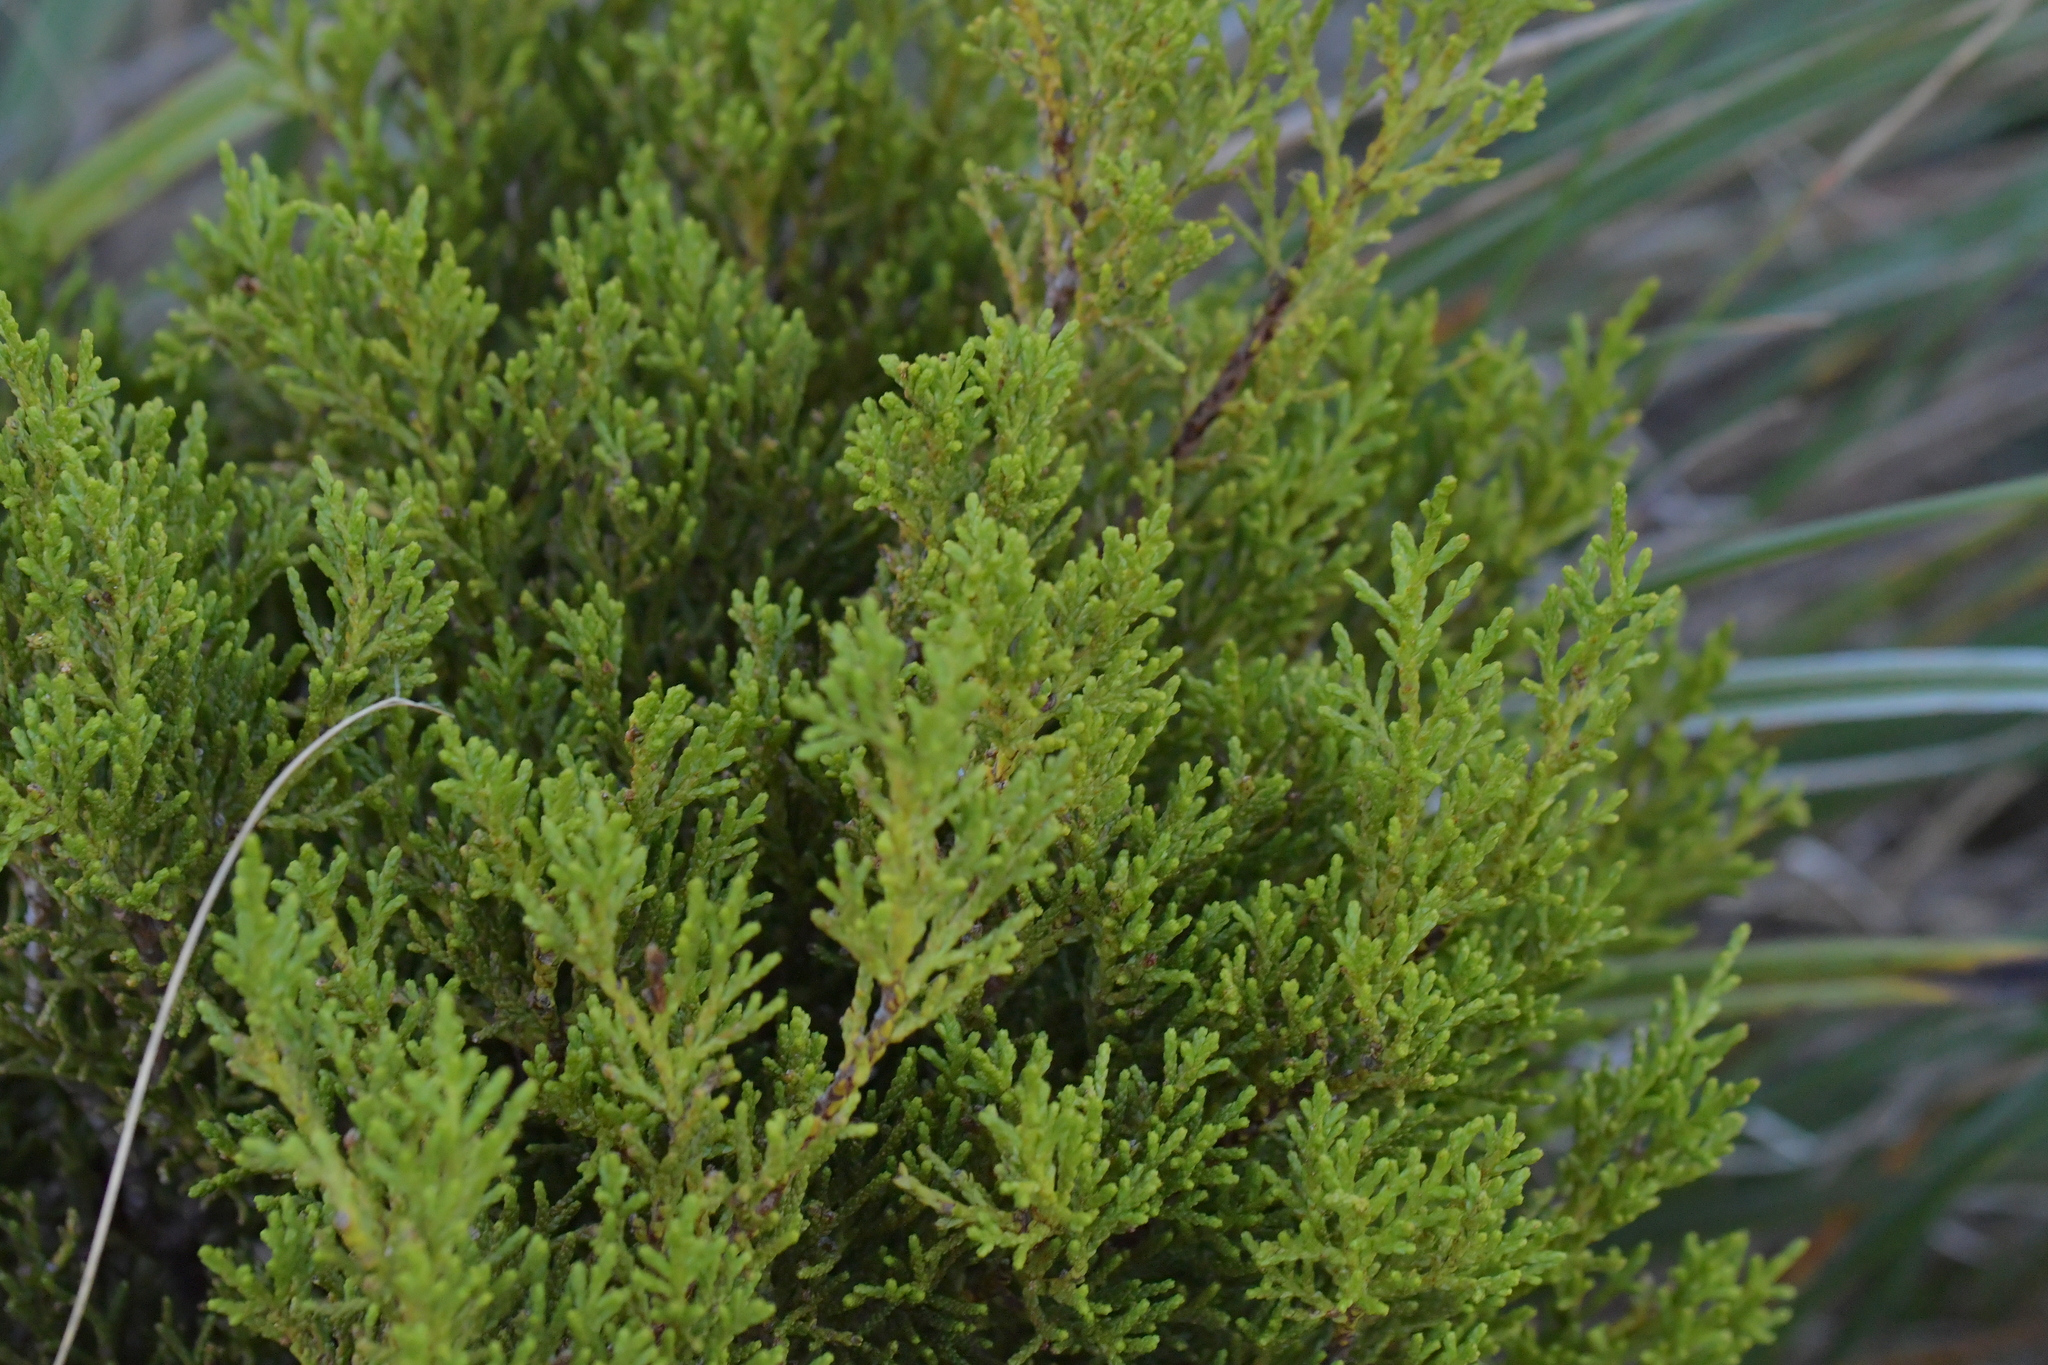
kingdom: Plantae
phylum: Tracheophyta
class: Pinopsida
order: Pinales
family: Podocarpaceae
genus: Halocarpus
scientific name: Halocarpus biformis
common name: Alpine tarwood
